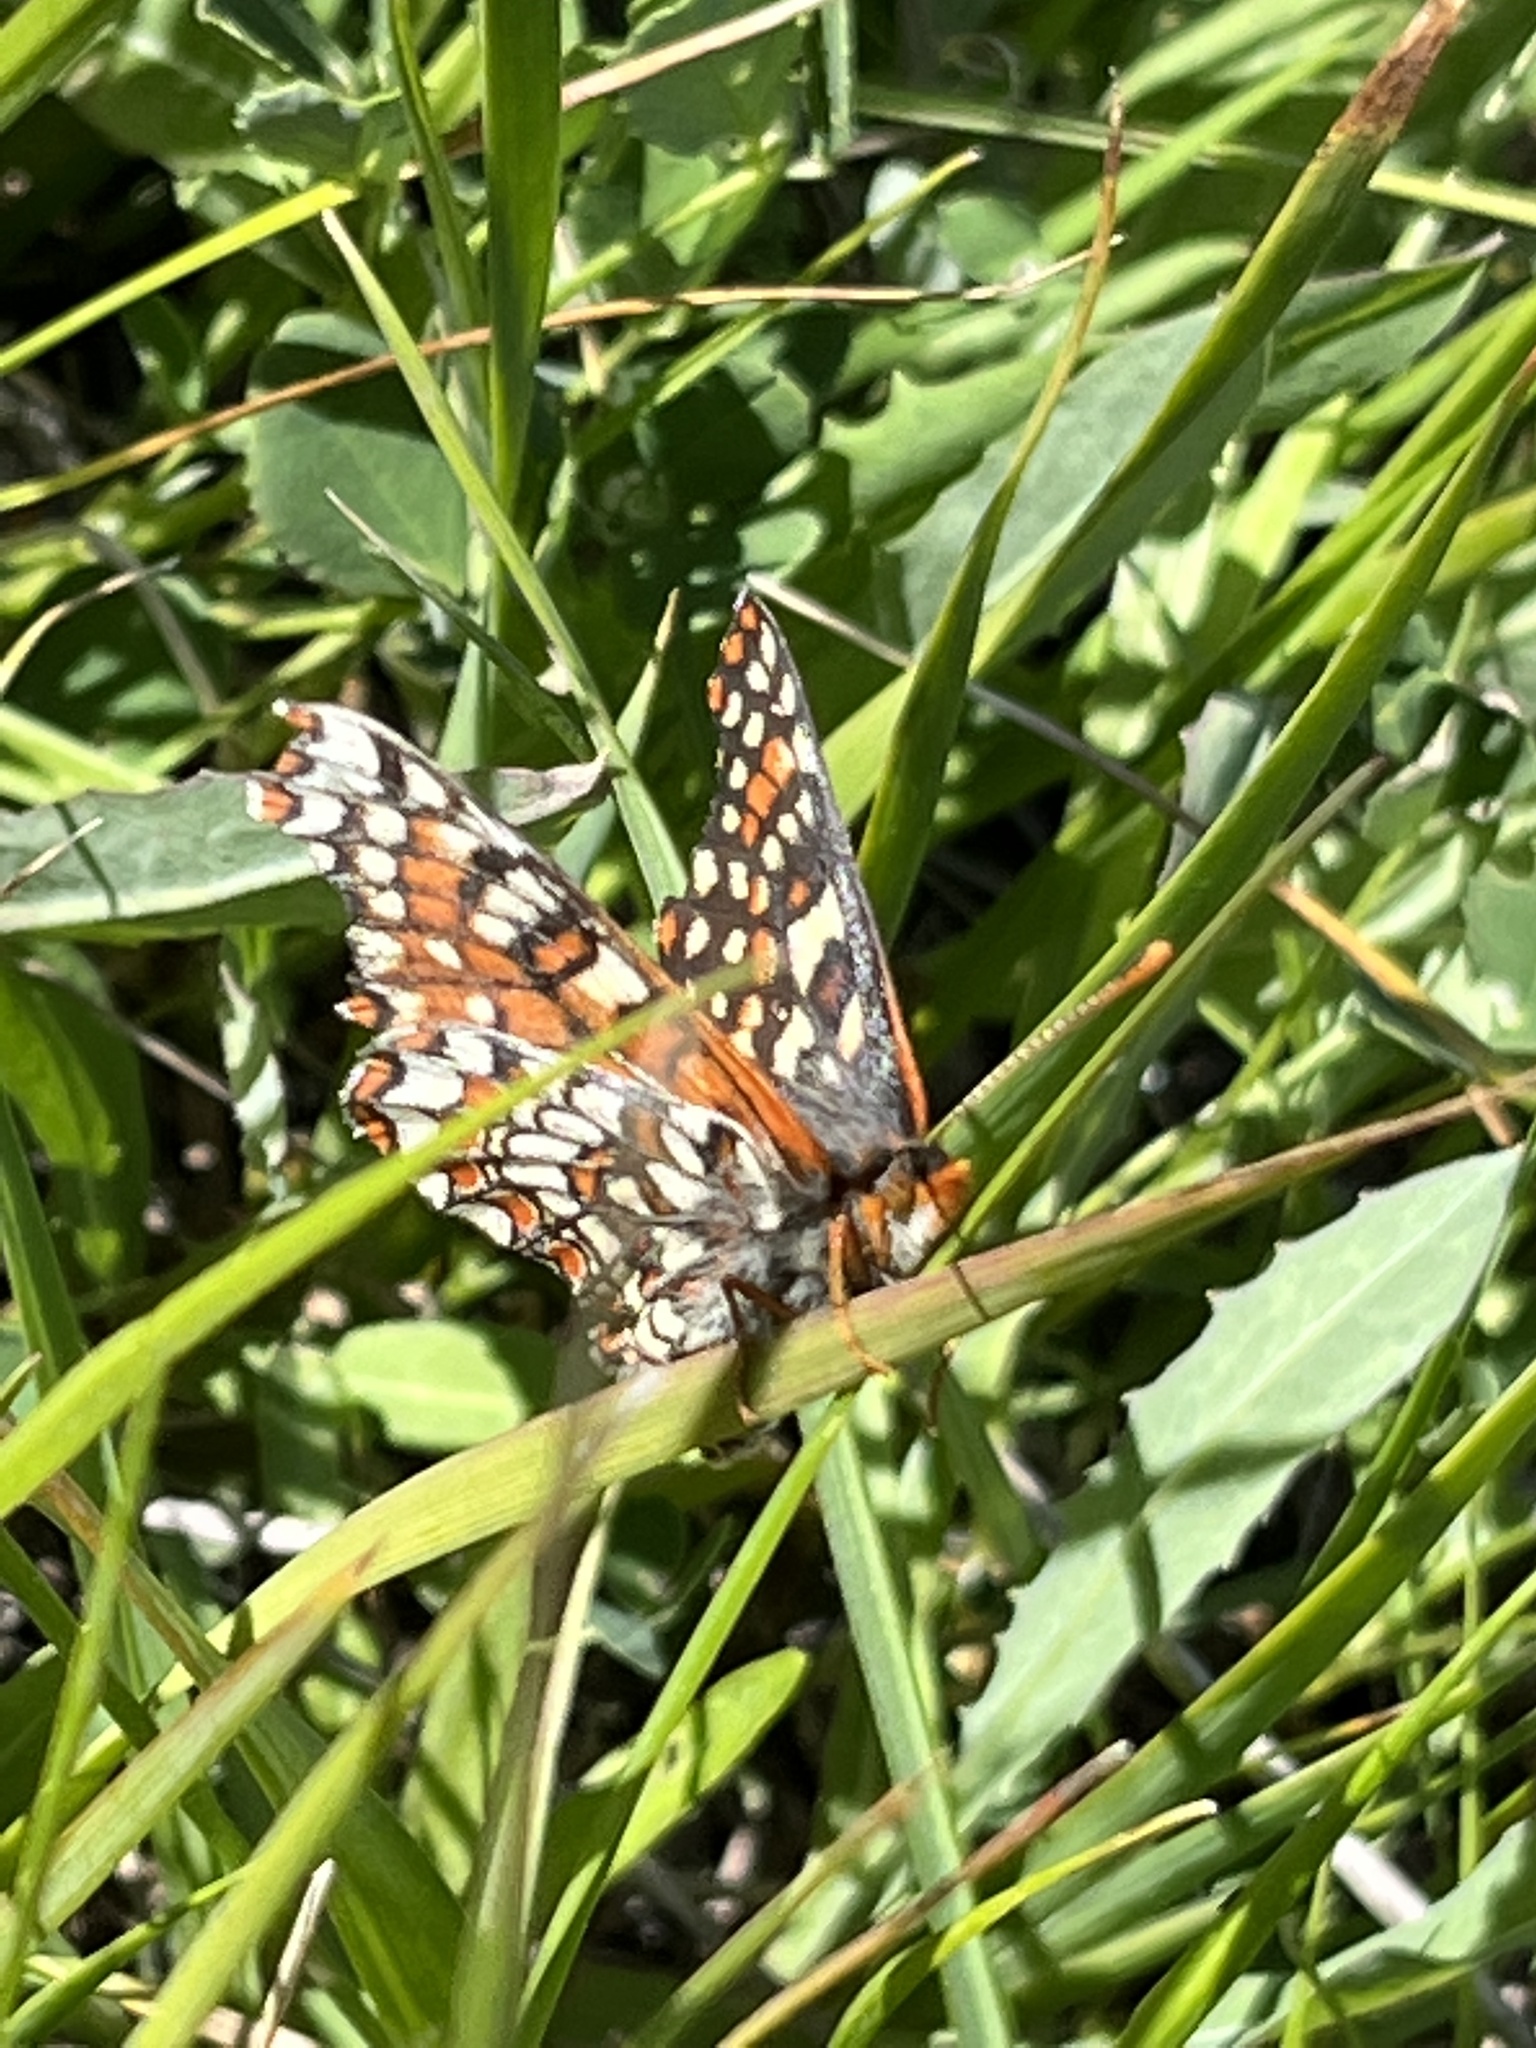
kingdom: Animalia
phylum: Arthropoda
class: Insecta
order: Lepidoptera
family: Nymphalidae
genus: Occidryas
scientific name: Occidryas editha
